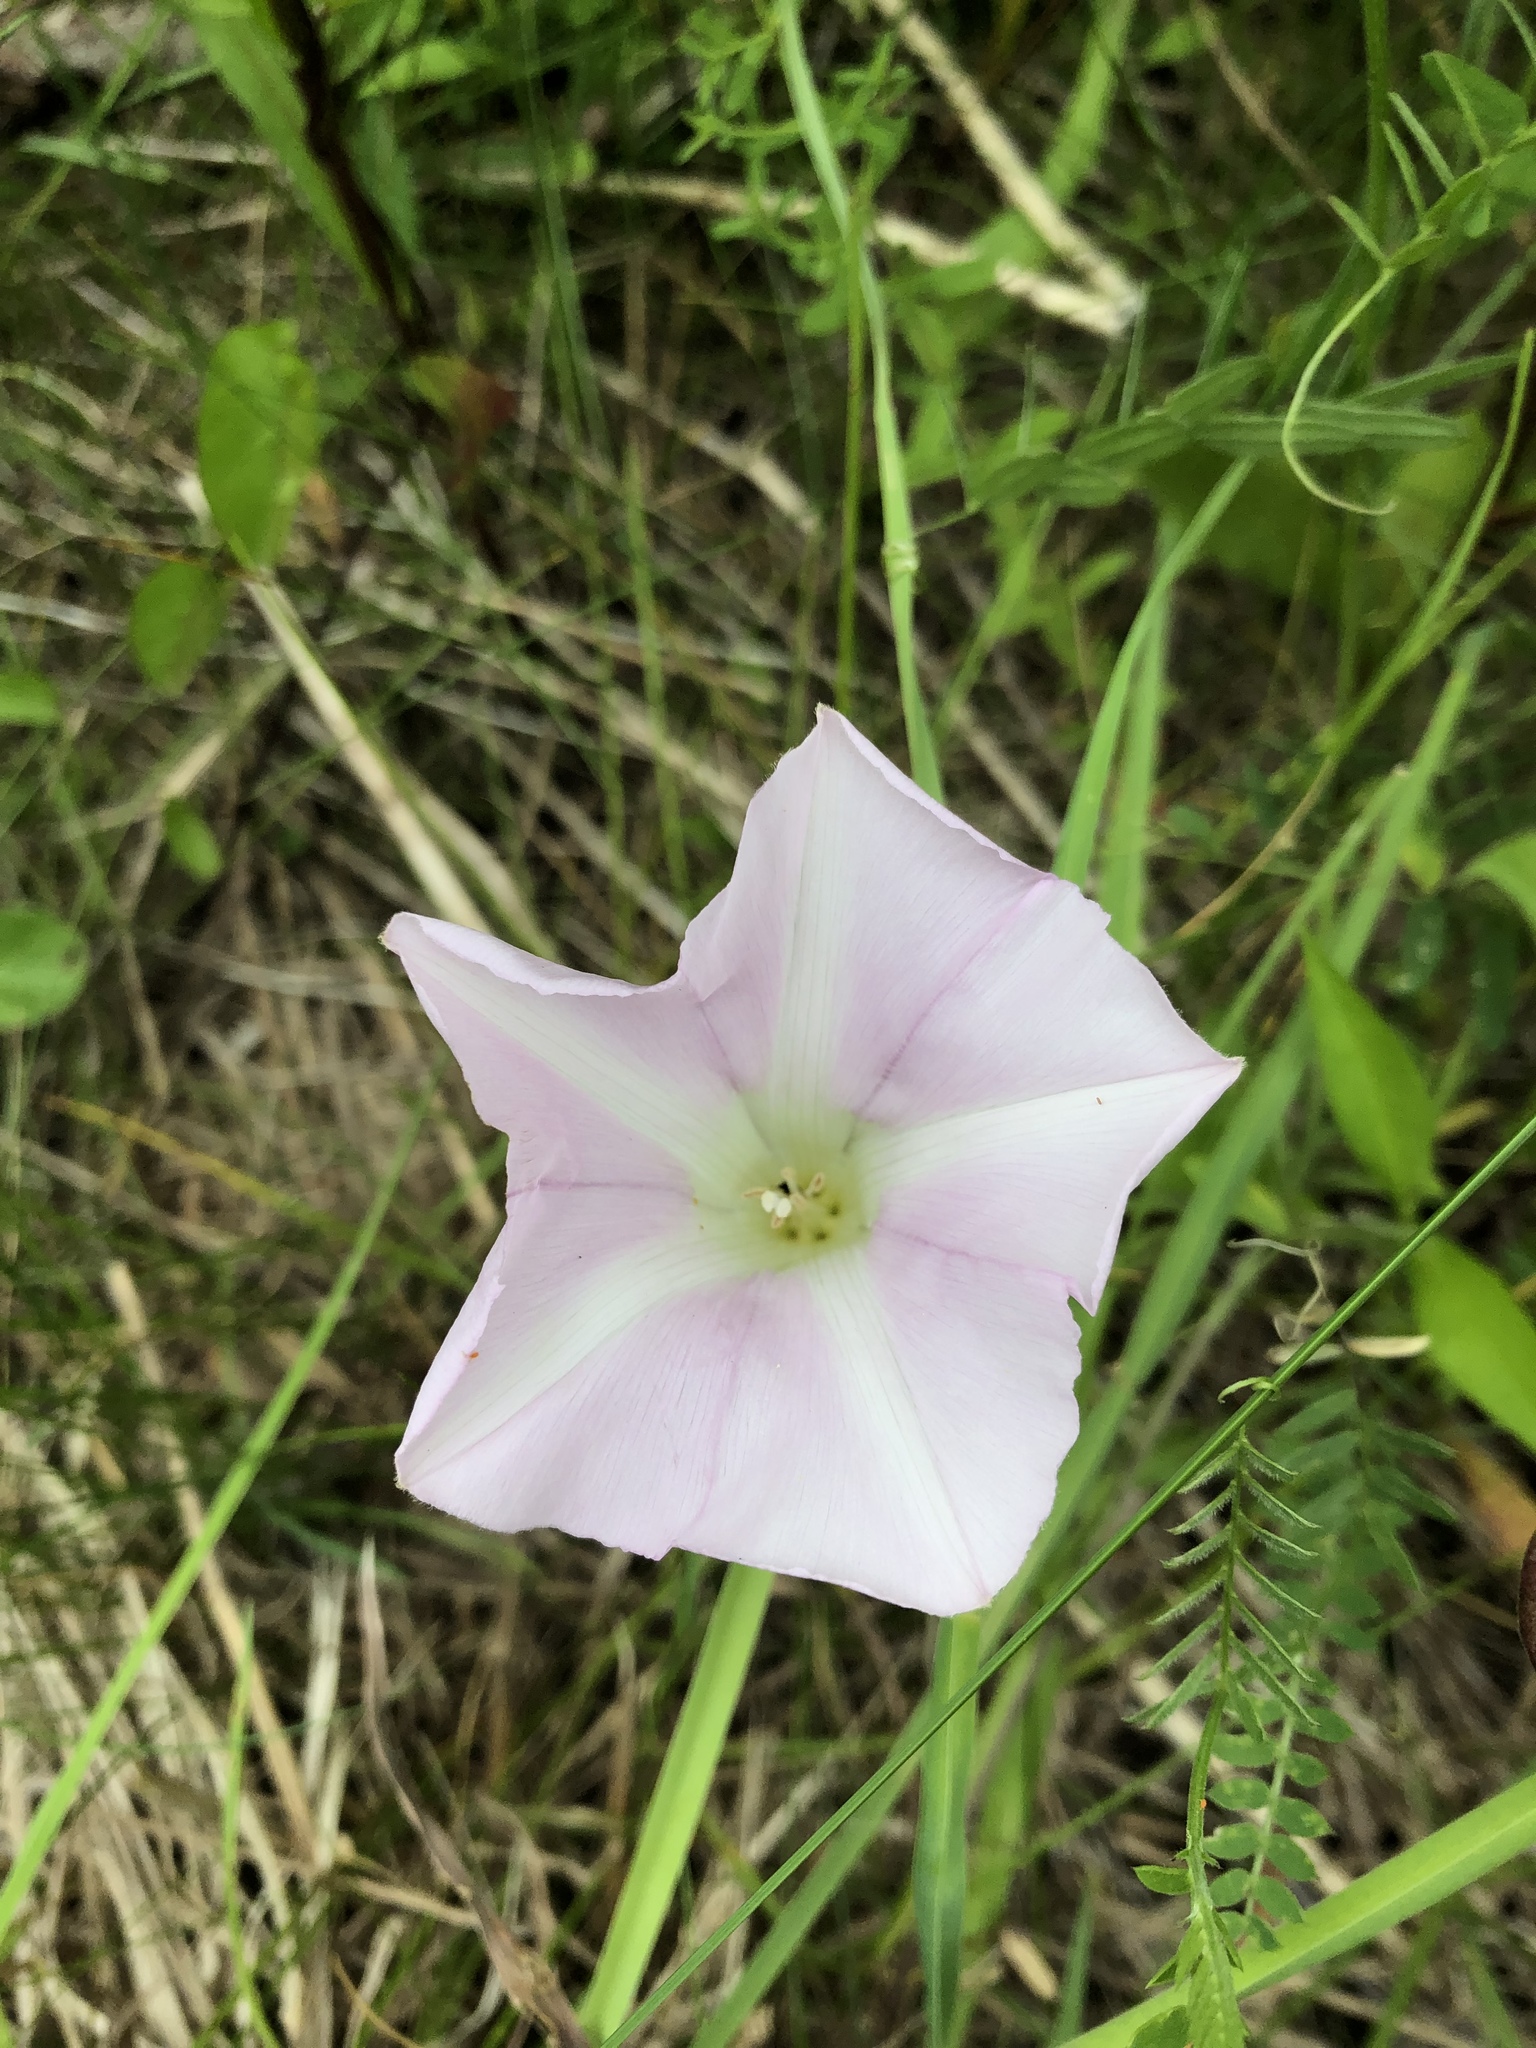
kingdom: Plantae
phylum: Tracheophyta
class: Magnoliopsida
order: Solanales
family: Convolvulaceae
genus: Calystegia
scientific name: Calystegia sepium
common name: Hedge bindweed
